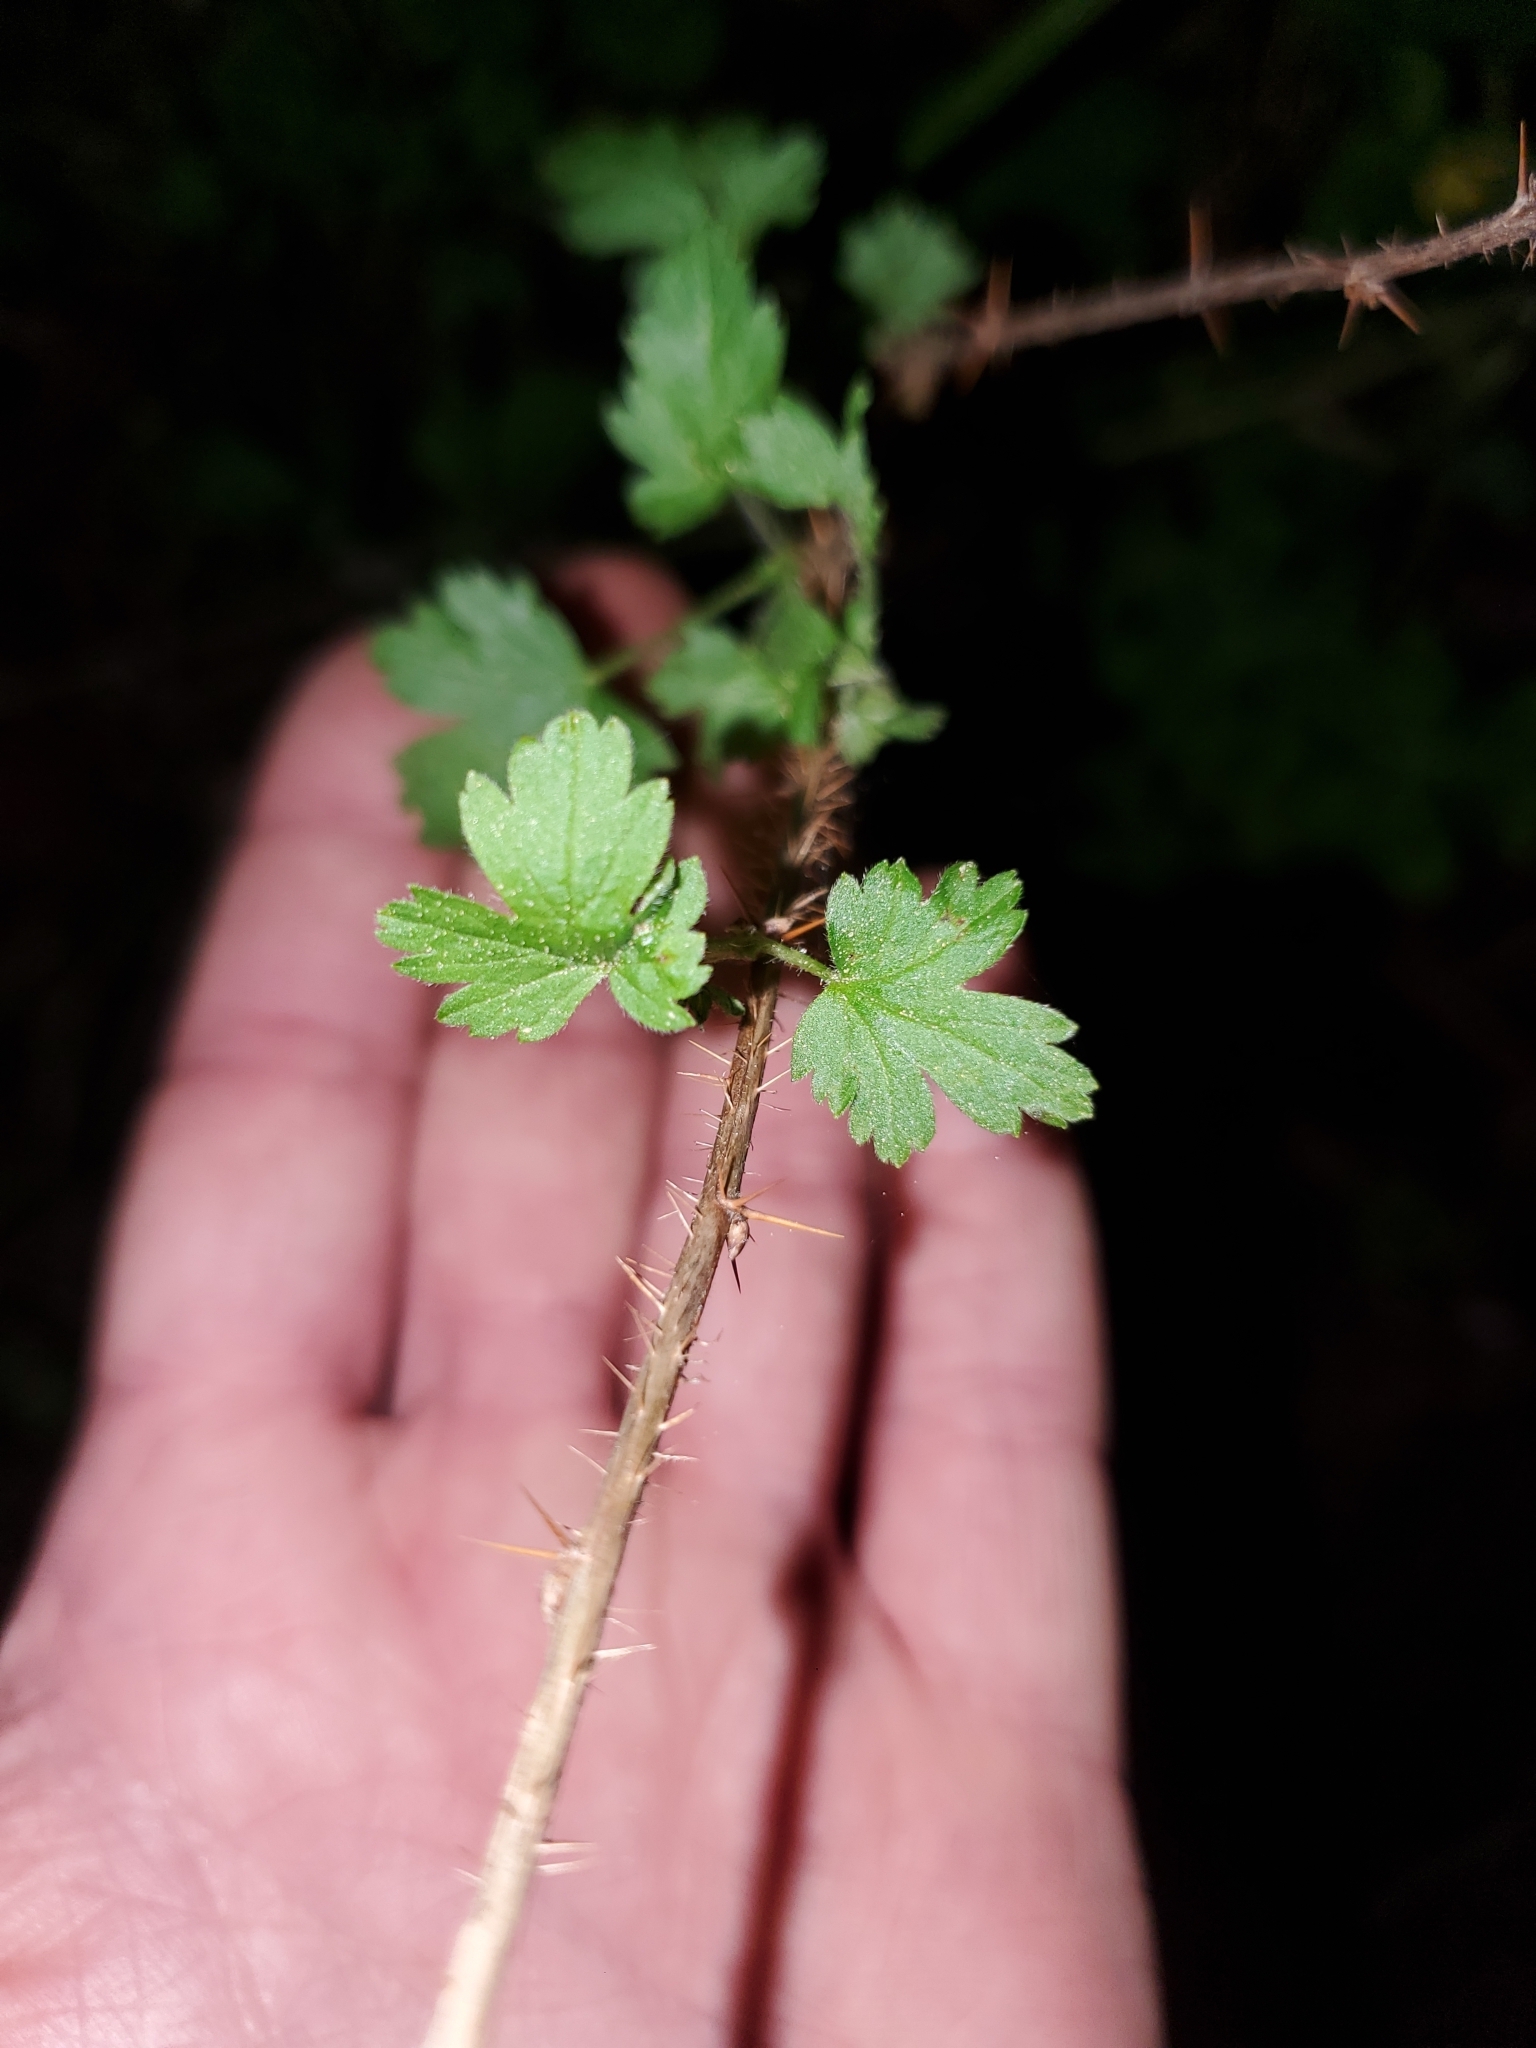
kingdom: Plantae
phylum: Tracheophyta
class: Magnoliopsida
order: Saxifragales
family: Grossulariaceae
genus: Ribes
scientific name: Ribes menziesii
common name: Canyon gooseberry
